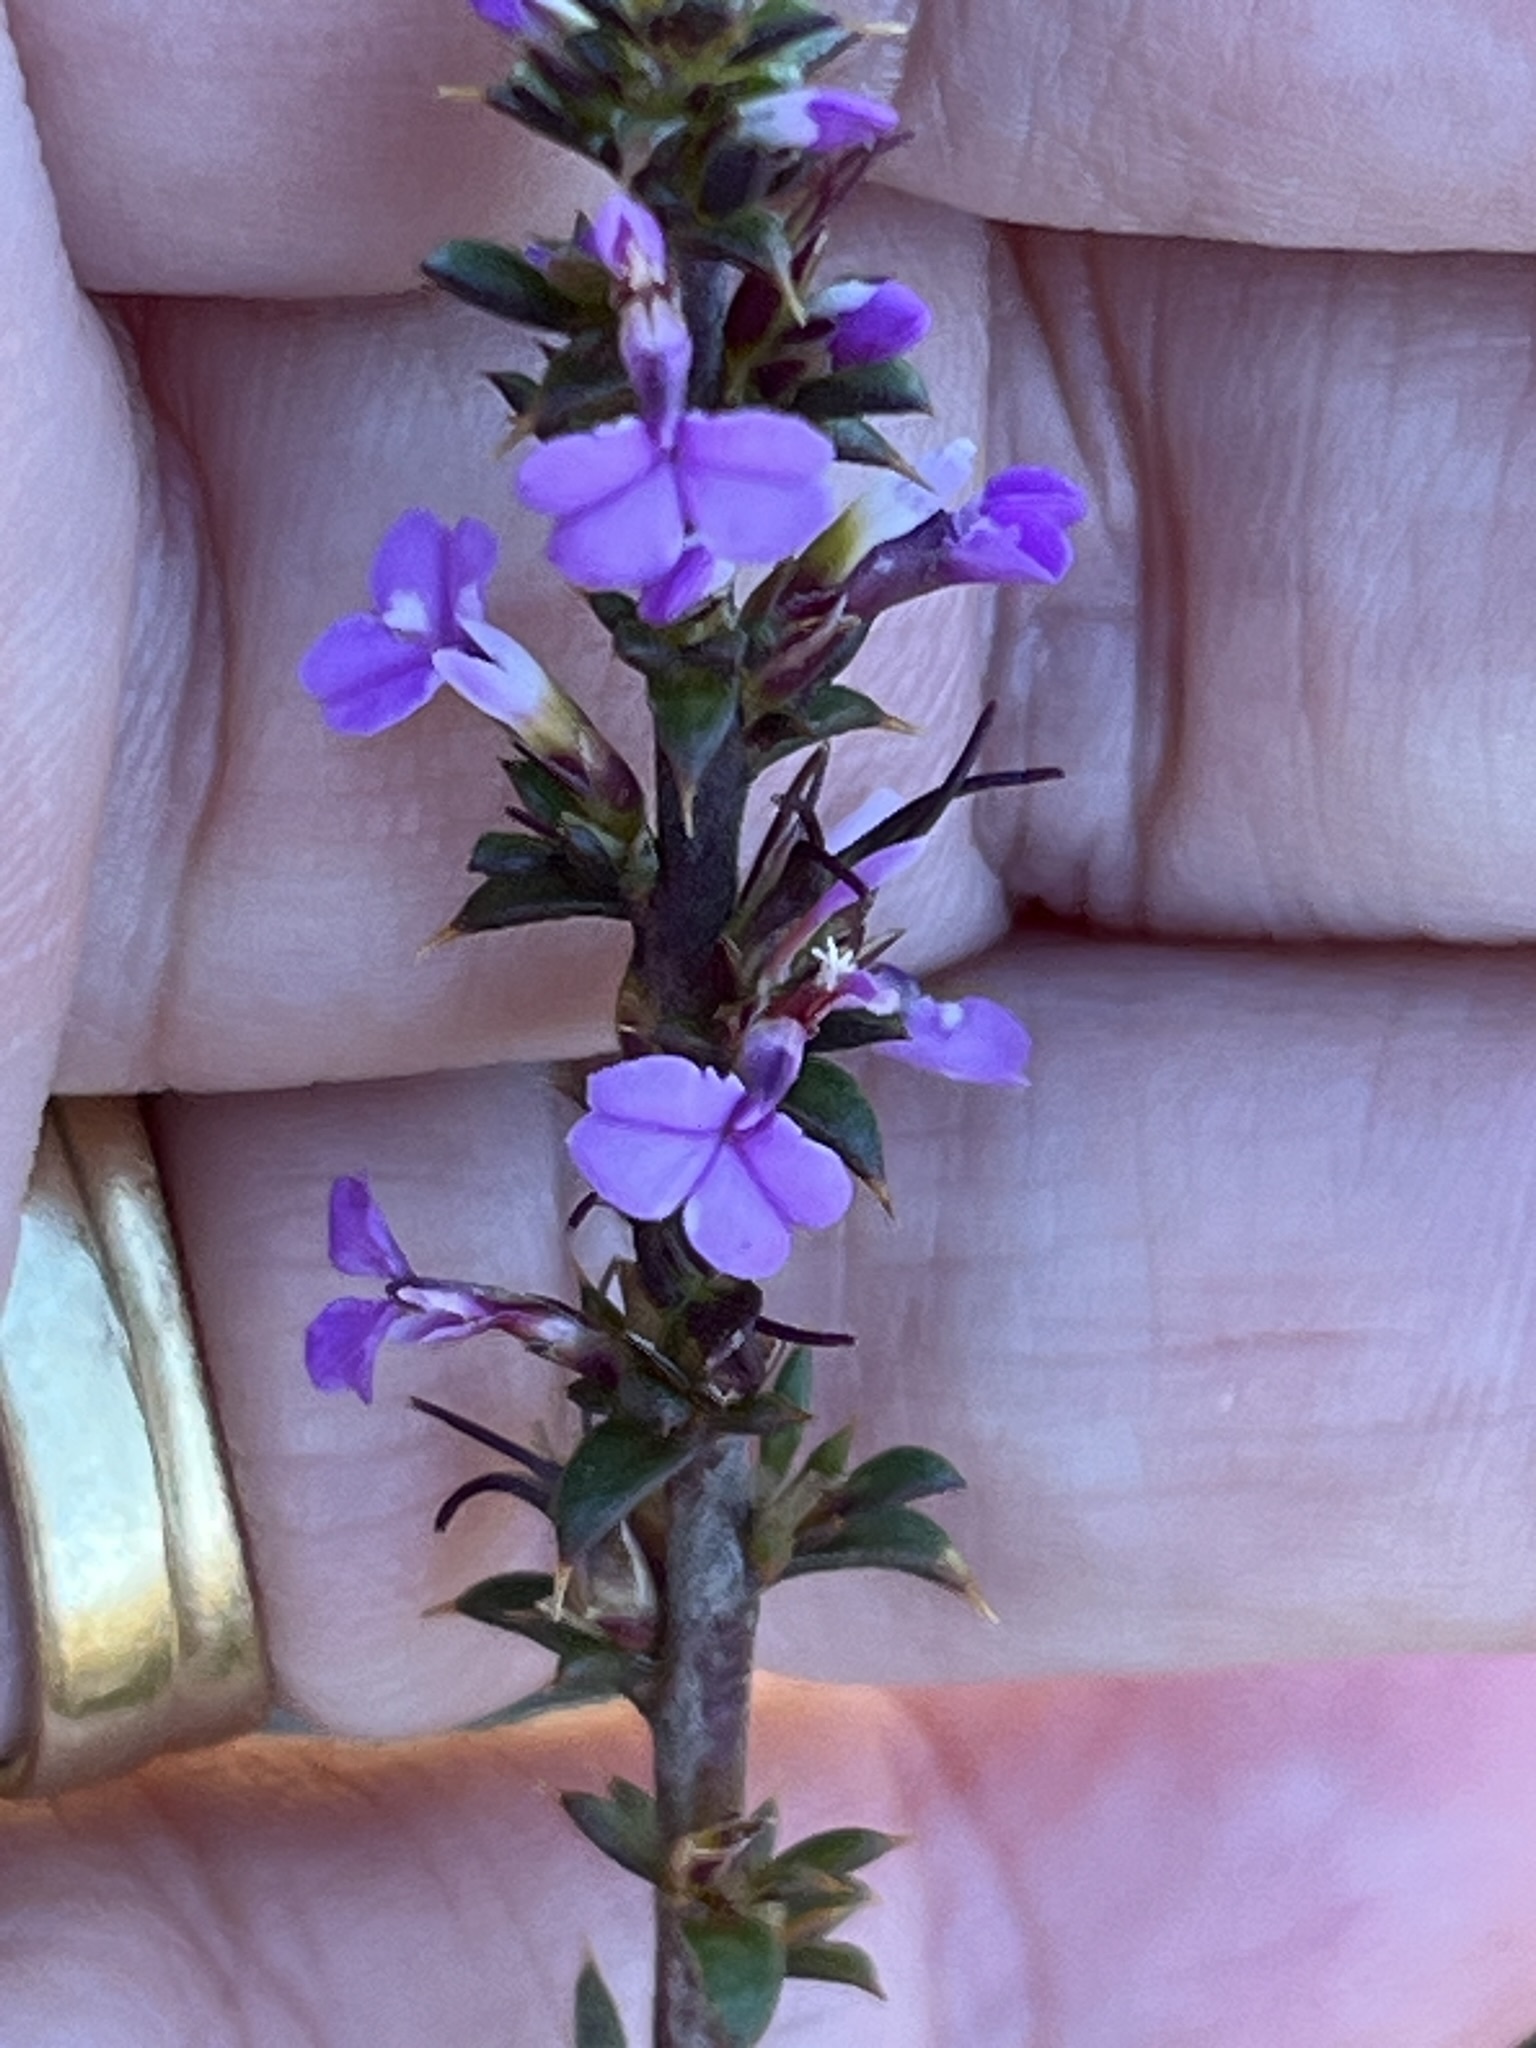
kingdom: Plantae
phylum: Tracheophyta
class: Magnoliopsida
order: Fabales
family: Polygalaceae
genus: Muraltia
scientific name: Muraltia heisteria
